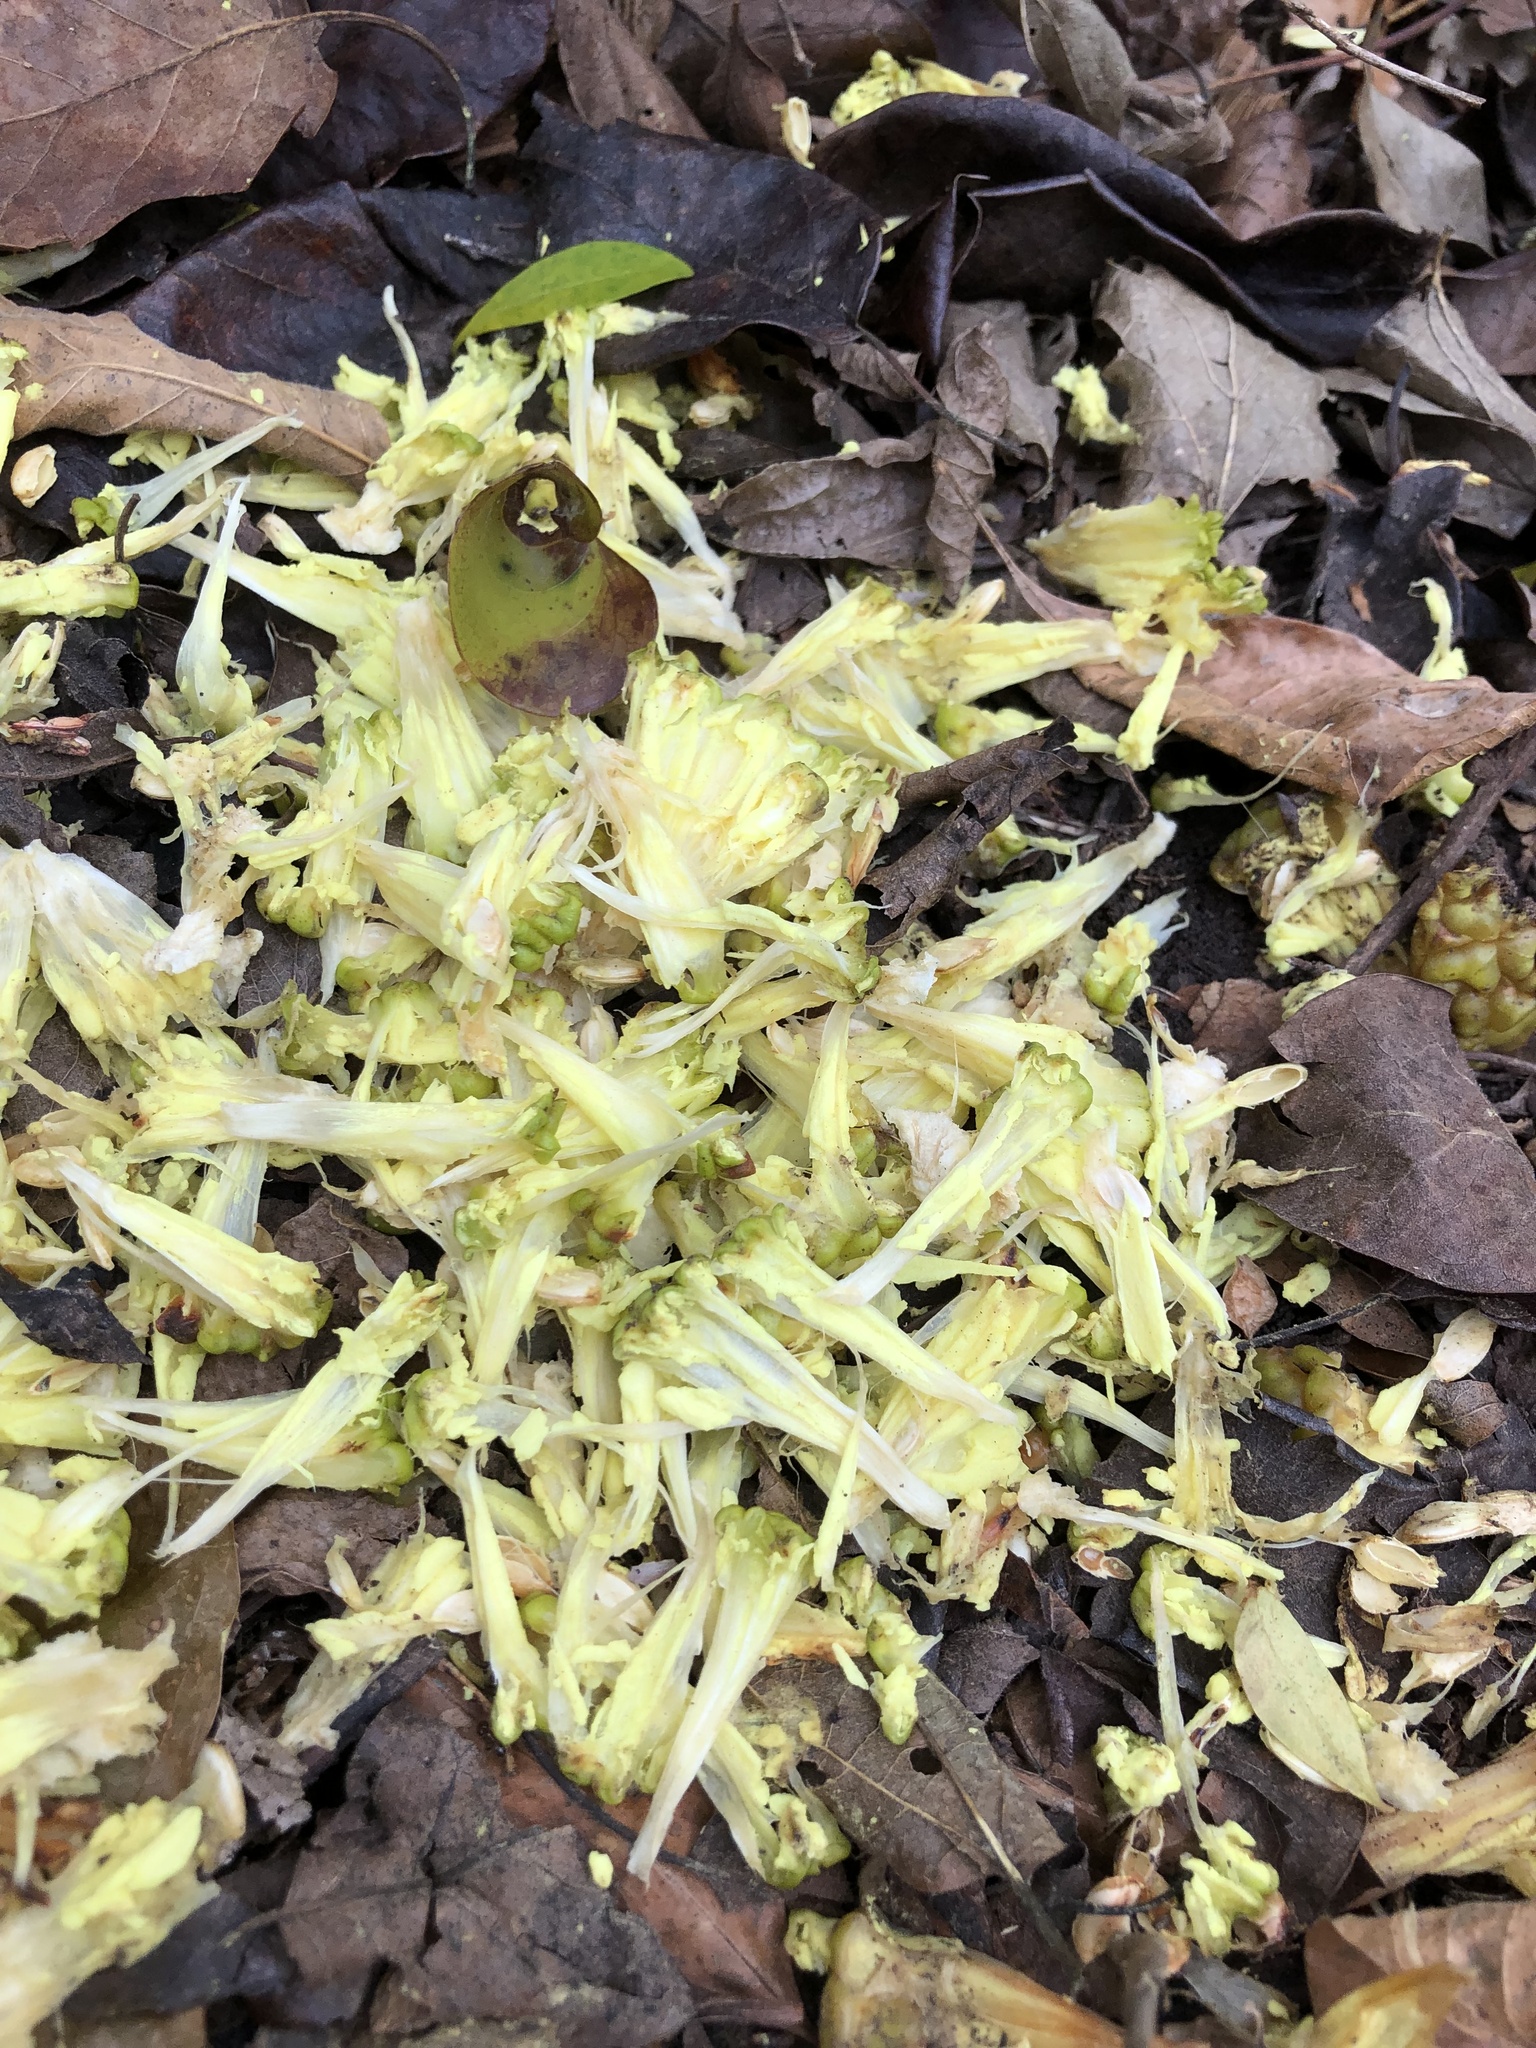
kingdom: Plantae
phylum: Tracheophyta
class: Magnoliopsida
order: Rosales
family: Moraceae
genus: Maclura
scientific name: Maclura pomifera
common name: Osage-orange
